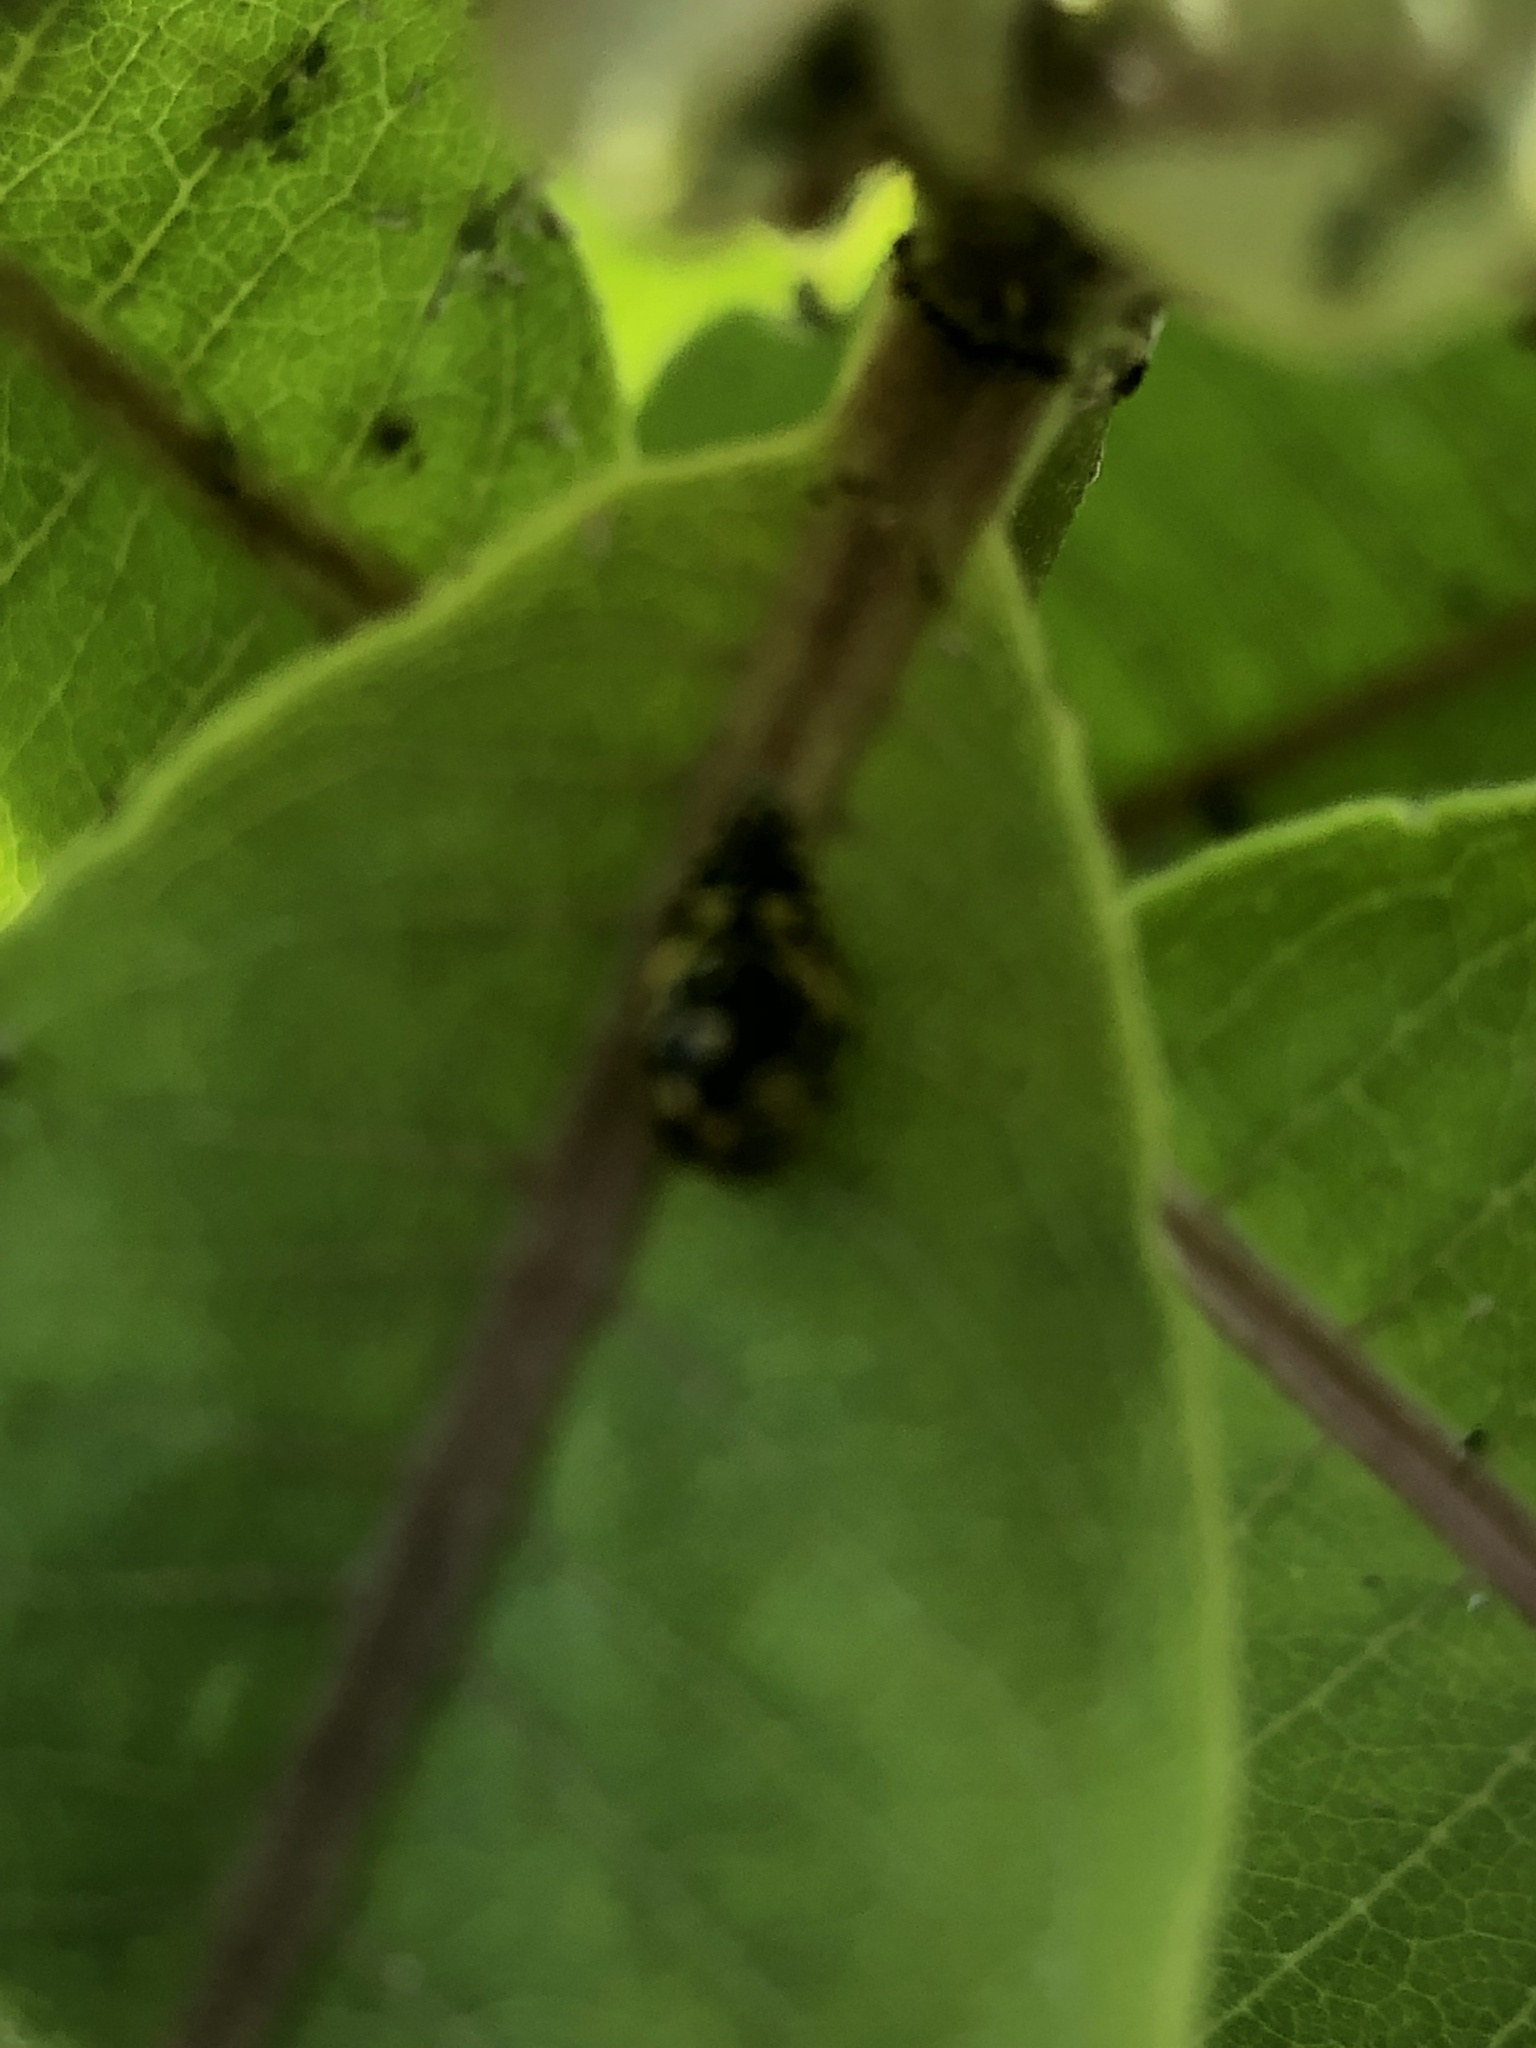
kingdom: Animalia
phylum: Arthropoda
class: Insecta
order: Coleoptera
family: Coccinellidae
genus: Propylaea
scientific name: Propylaea quatuordecimpunctata
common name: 14-spotted ladybird beetle
